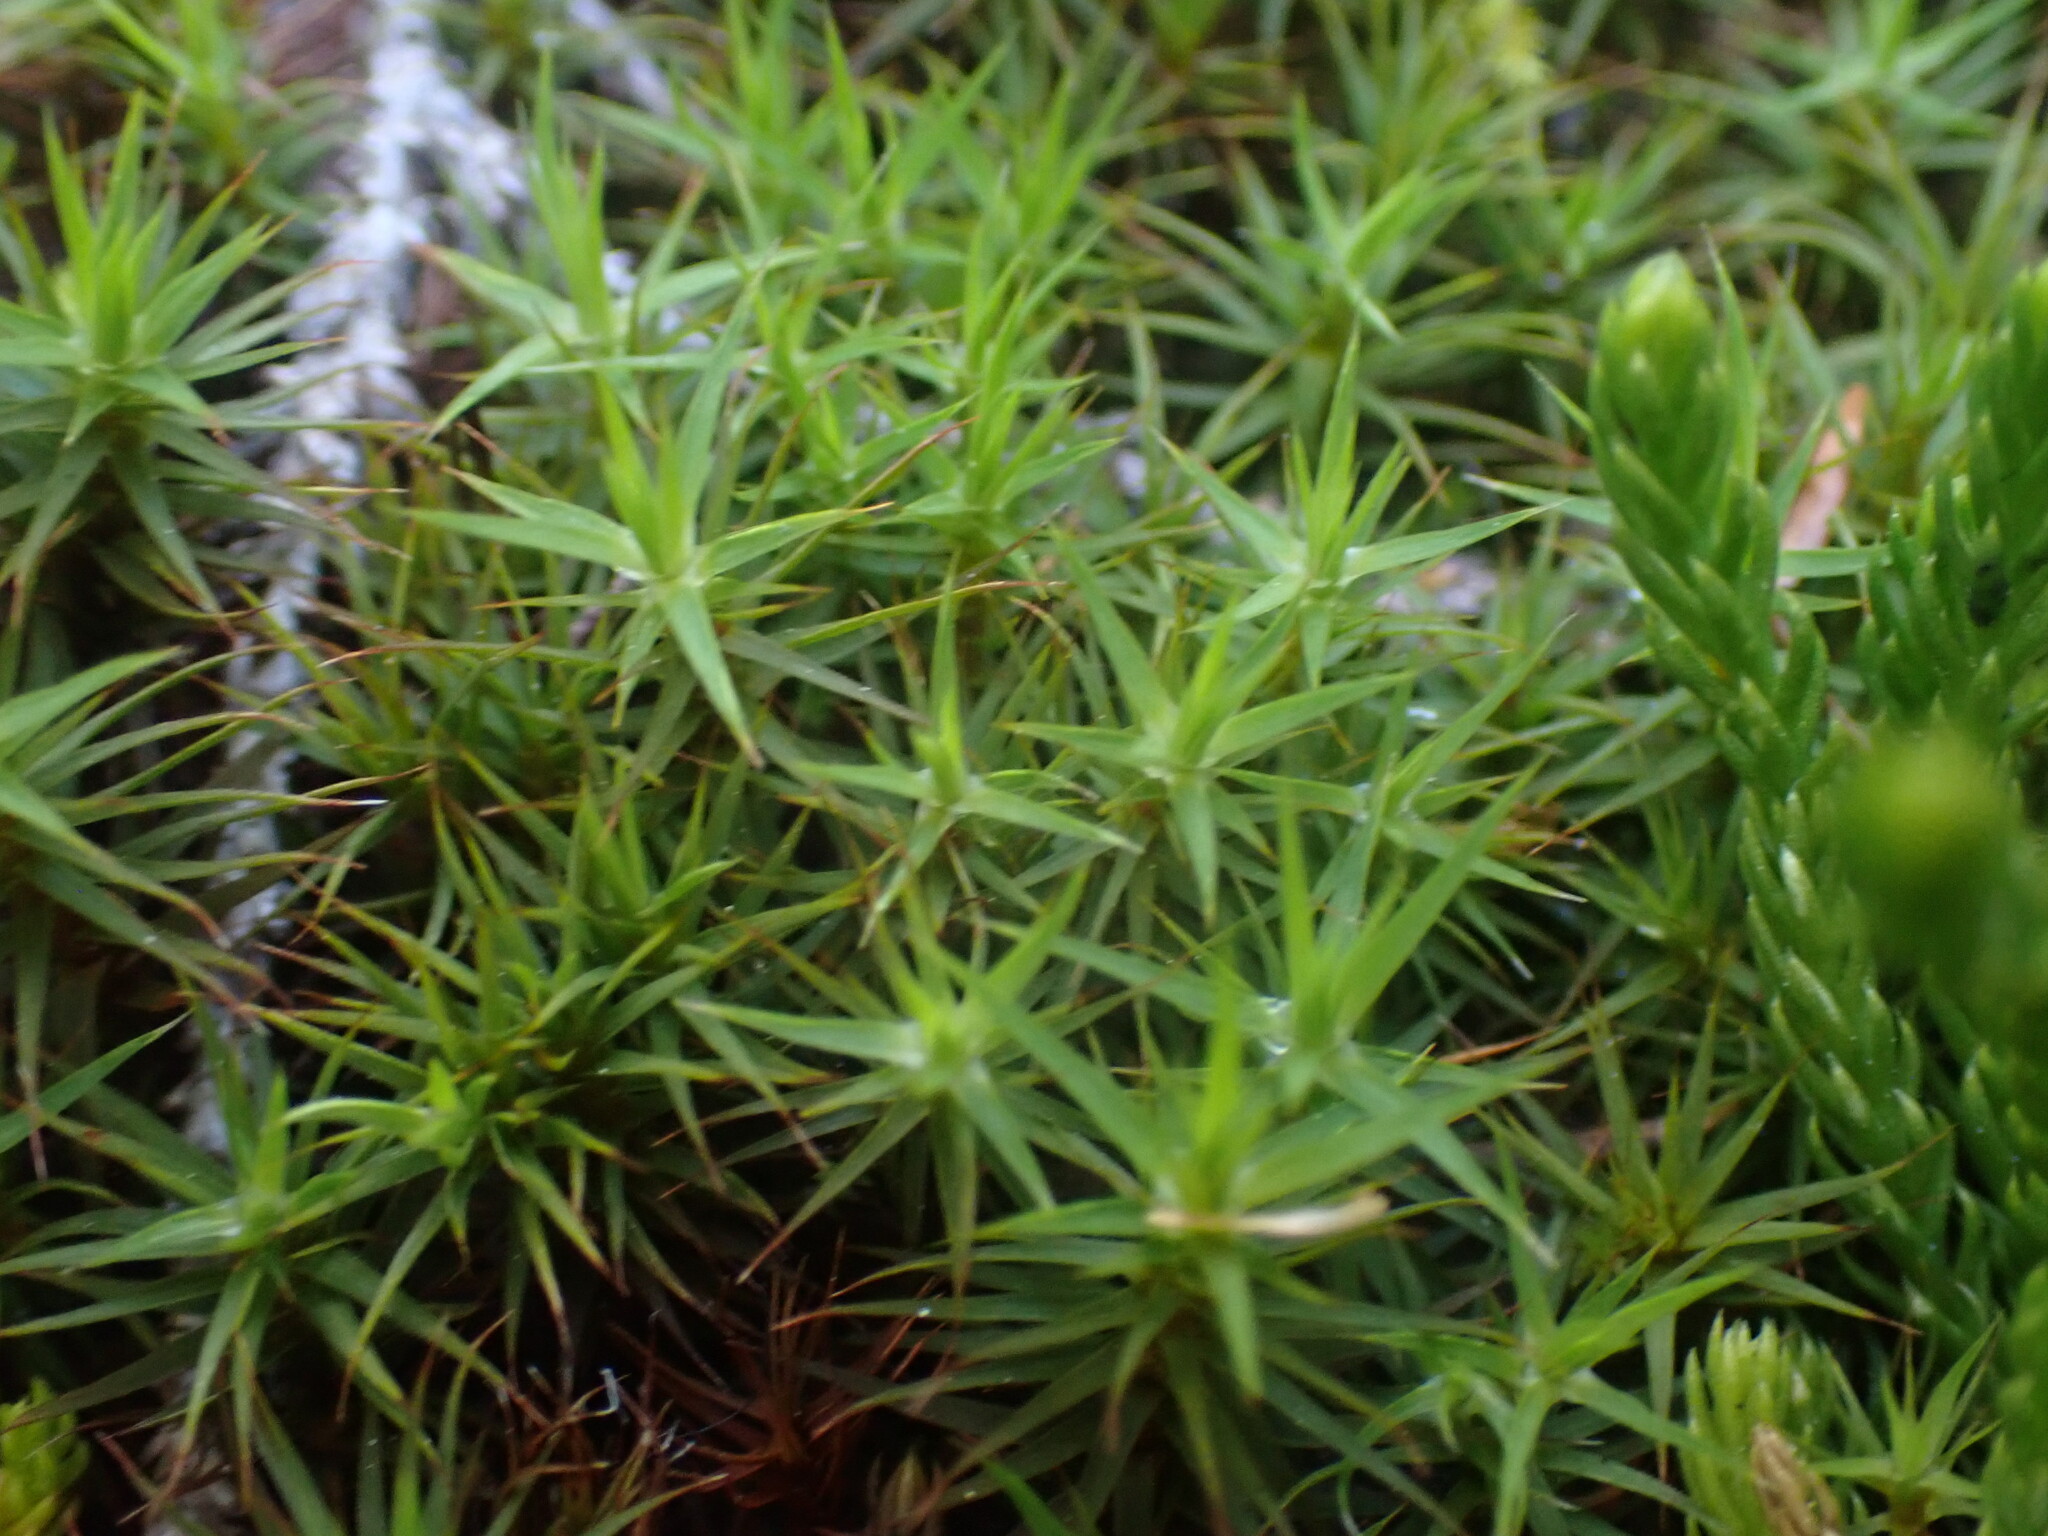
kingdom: Plantae
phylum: Bryophyta
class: Polytrichopsida
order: Polytrichales
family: Polytrichaceae
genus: Polytrichastrum
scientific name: Polytrichastrum alpinum
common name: Alpine haircap
